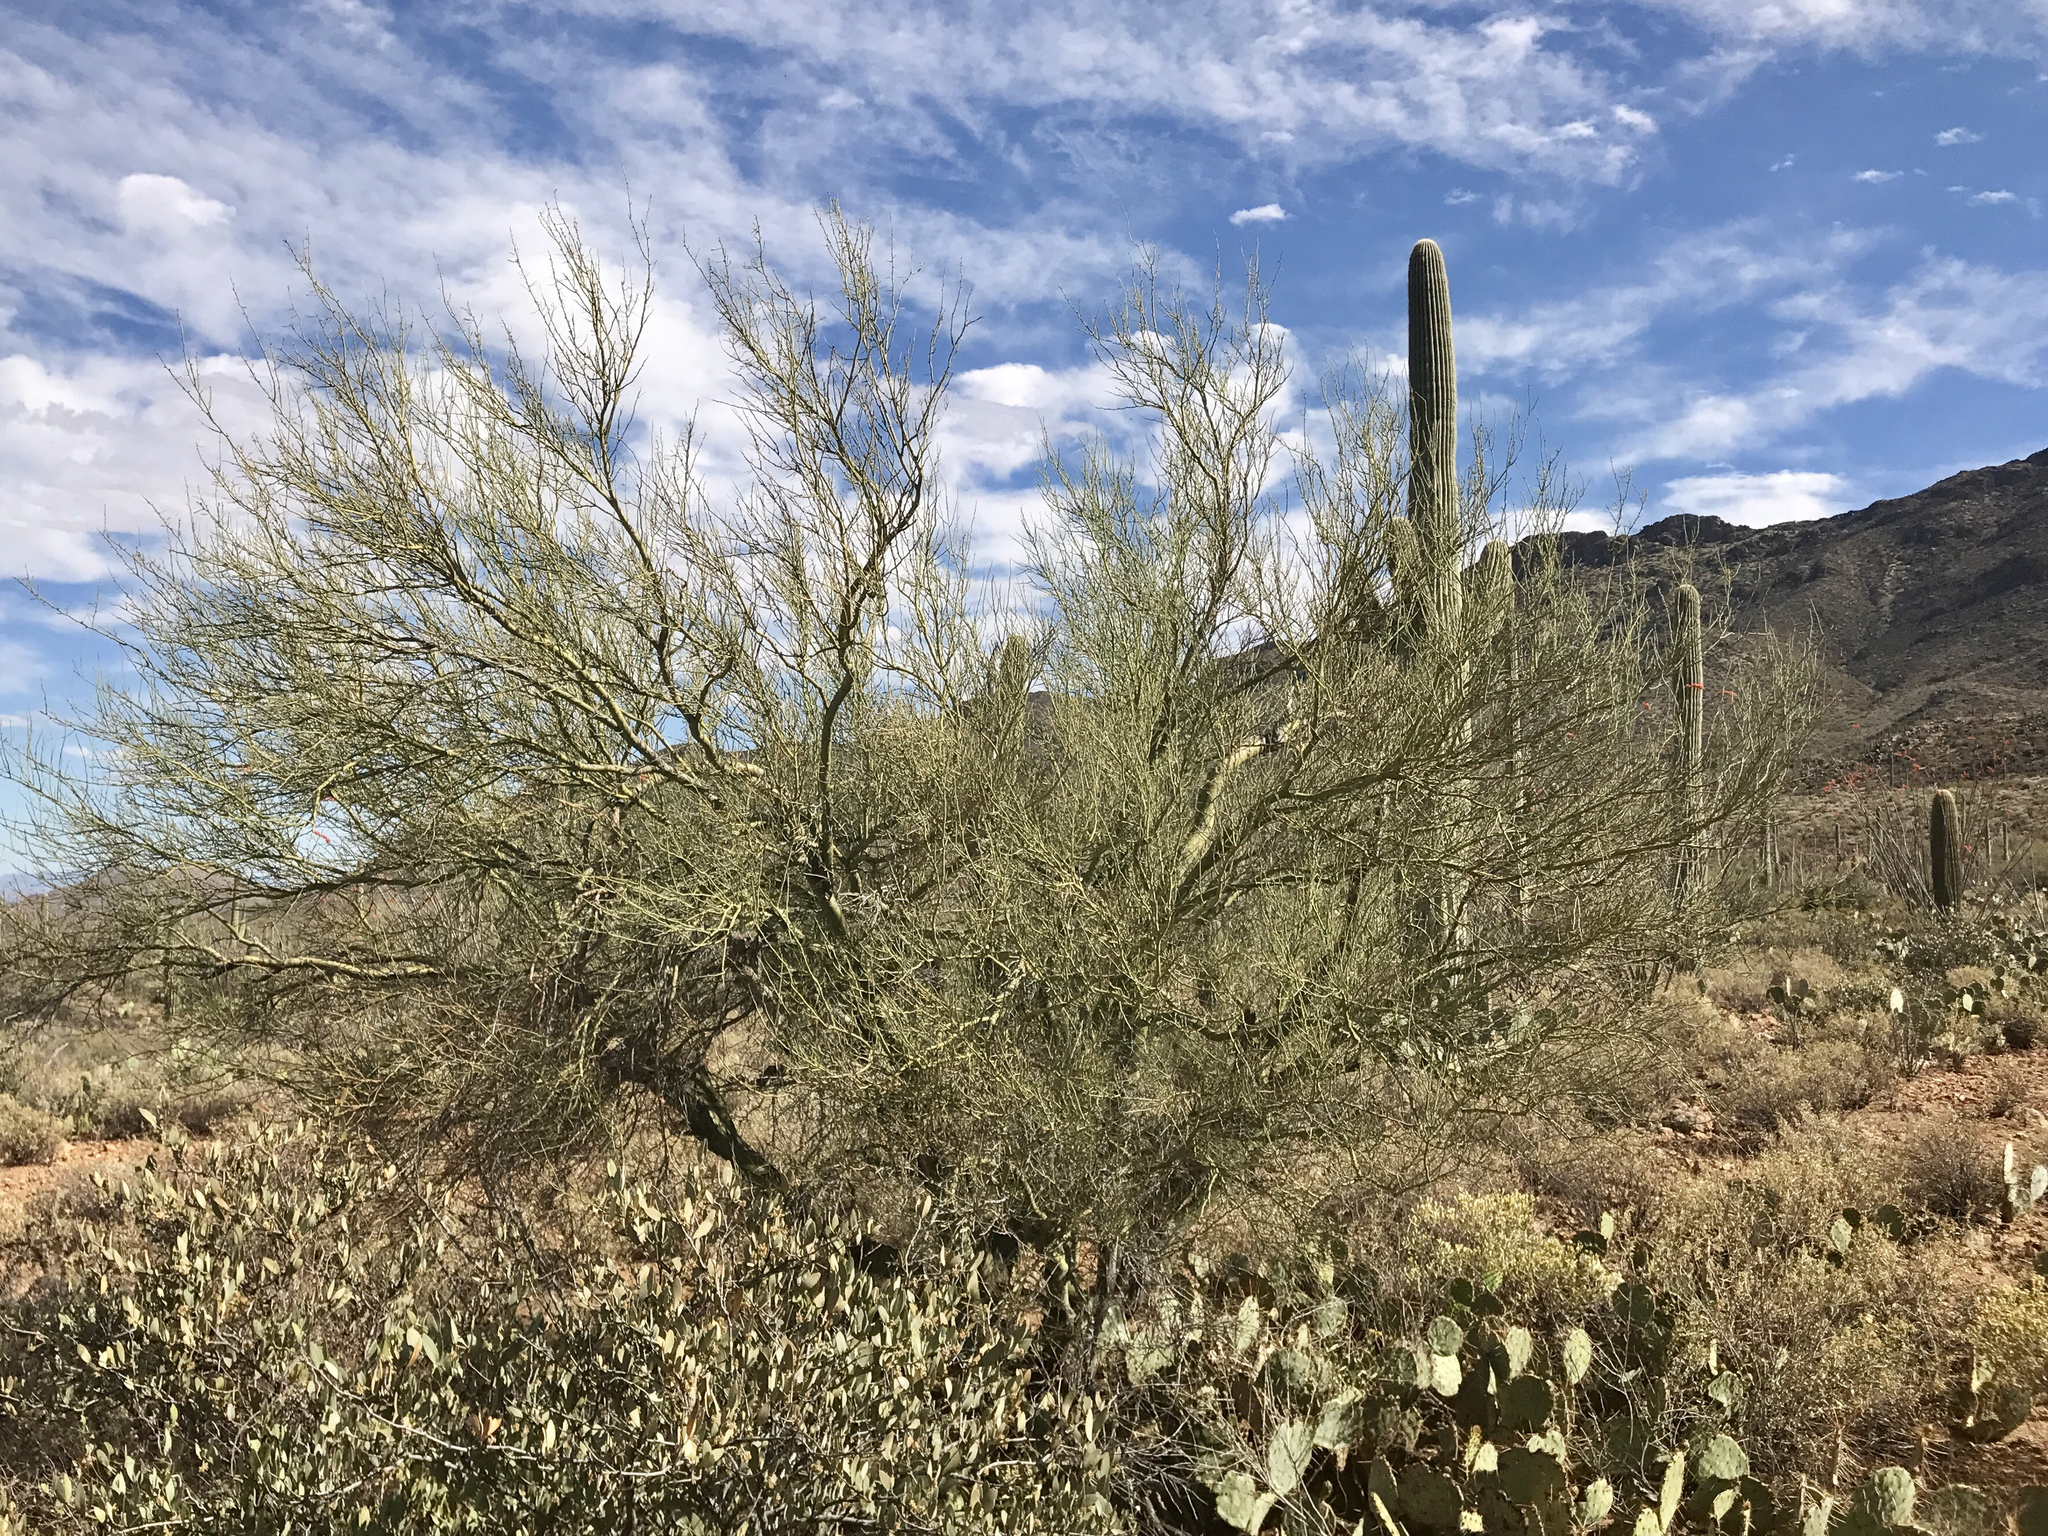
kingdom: Plantae
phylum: Tracheophyta
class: Magnoliopsida
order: Fabales
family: Fabaceae
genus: Parkinsonia
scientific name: Parkinsonia microphylla
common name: Yellow paloverde
